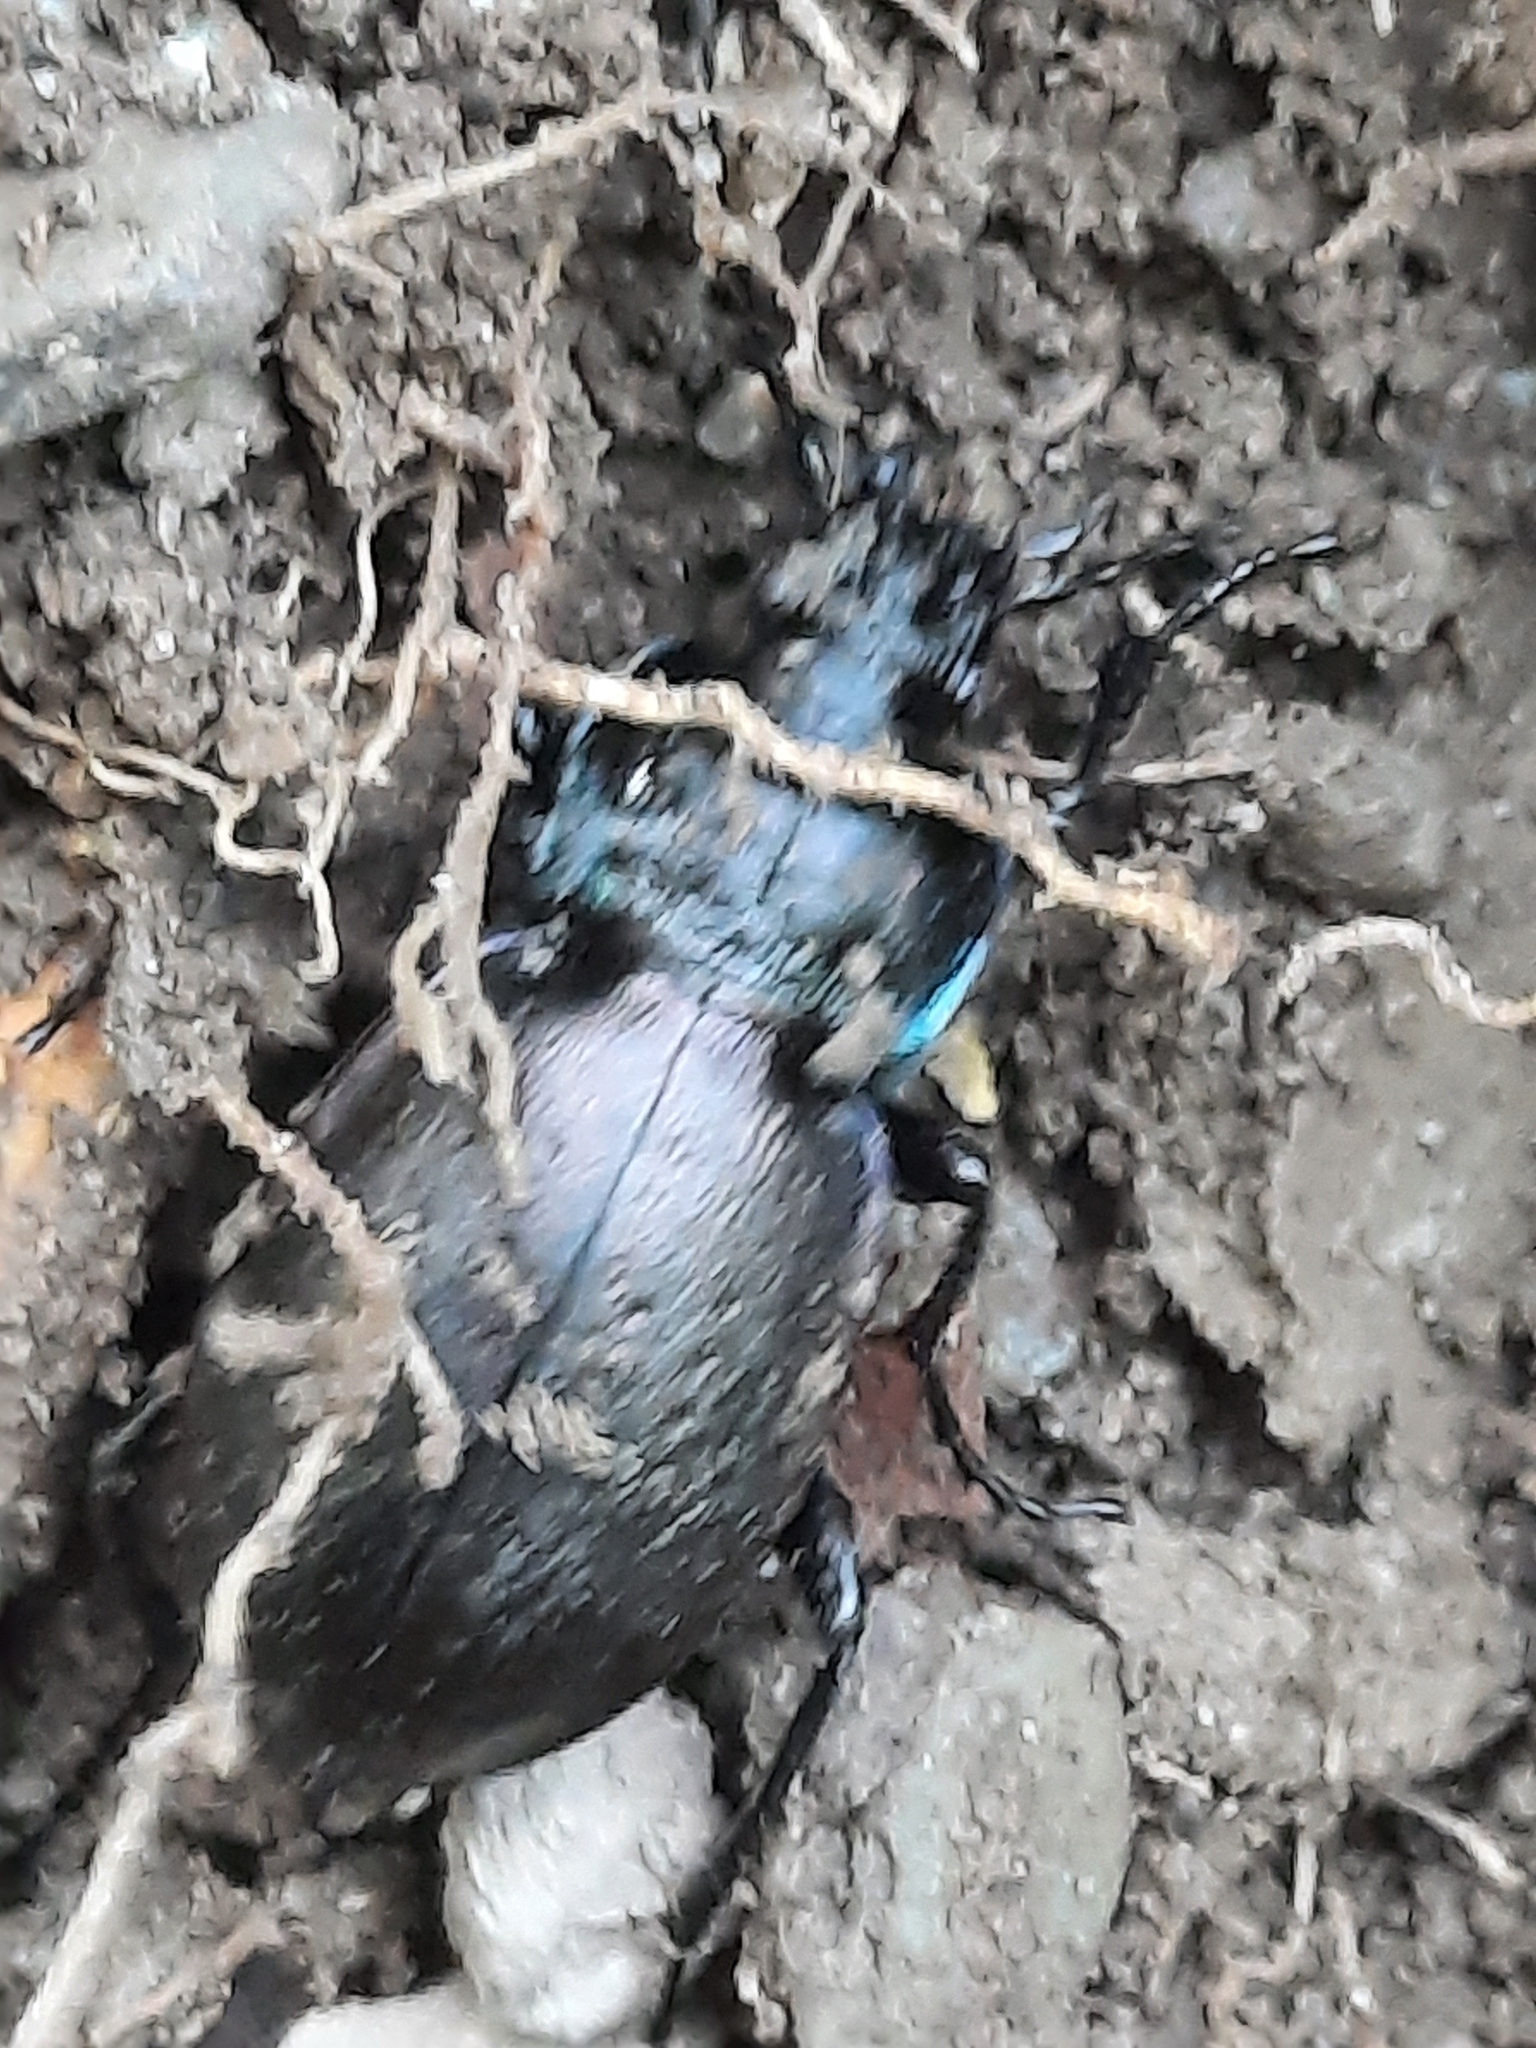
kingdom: Animalia
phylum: Arthropoda
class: Insecta
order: Coleoptera
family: Carabidae
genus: Carabus
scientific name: Carabus nemoralis
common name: European ground beetle
